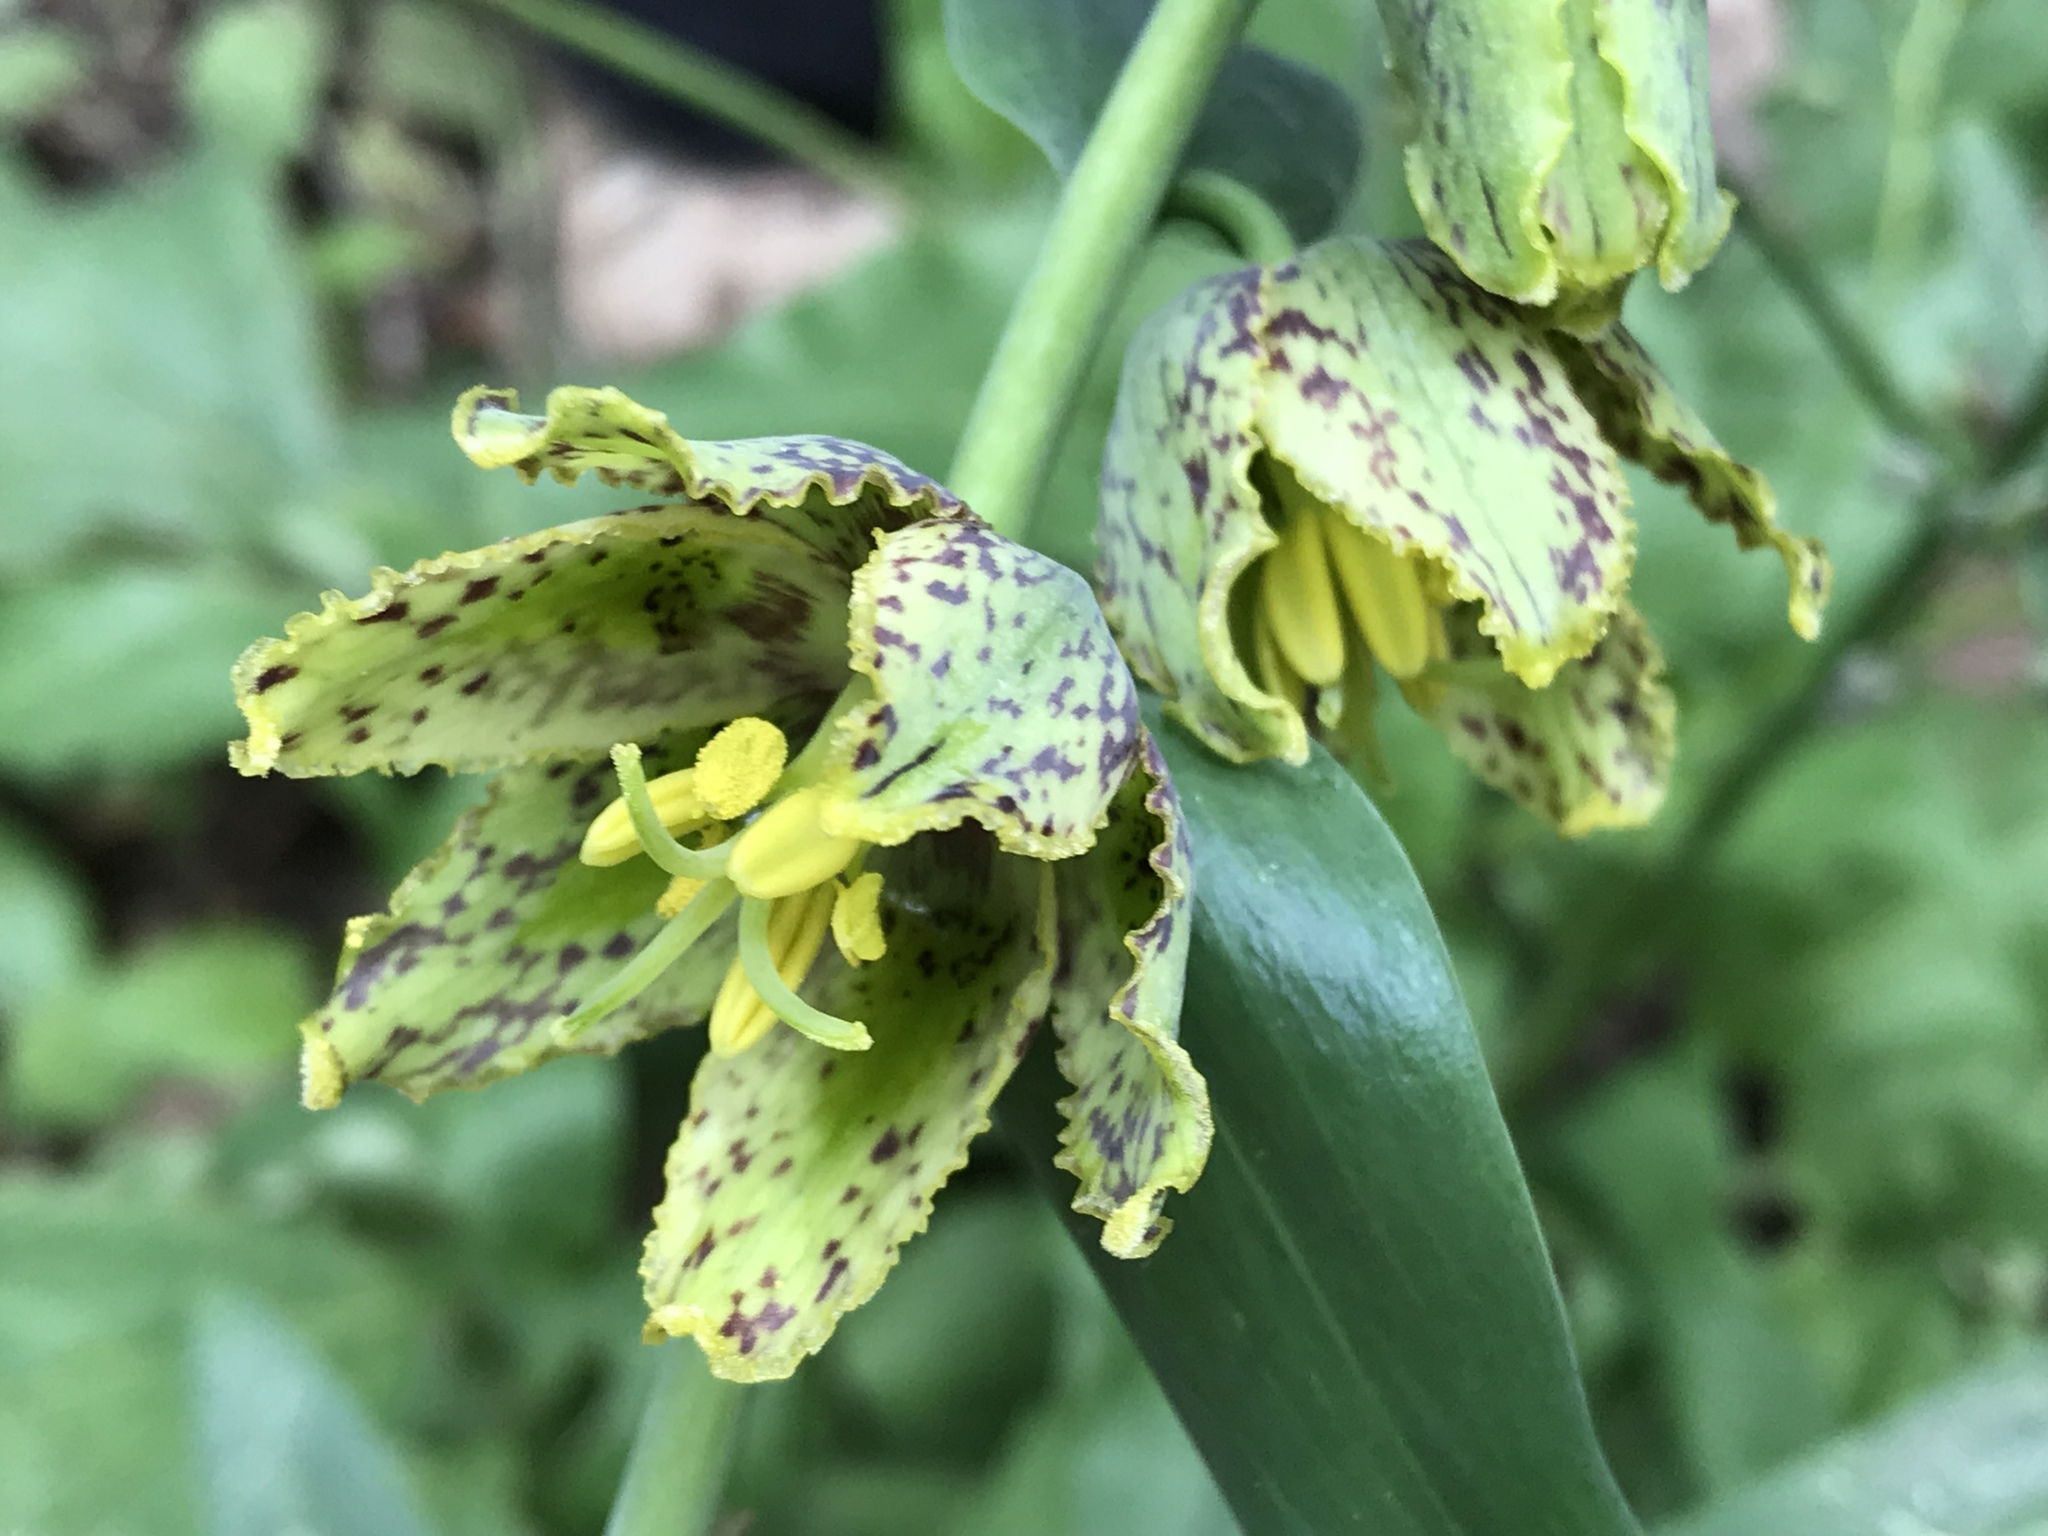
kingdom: Plantae
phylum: Tracheophyta
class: Liliopsida
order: Liliales
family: Liliaceae
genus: Fritillaria
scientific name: Fritillaria affinis
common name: Ojai fritillary
